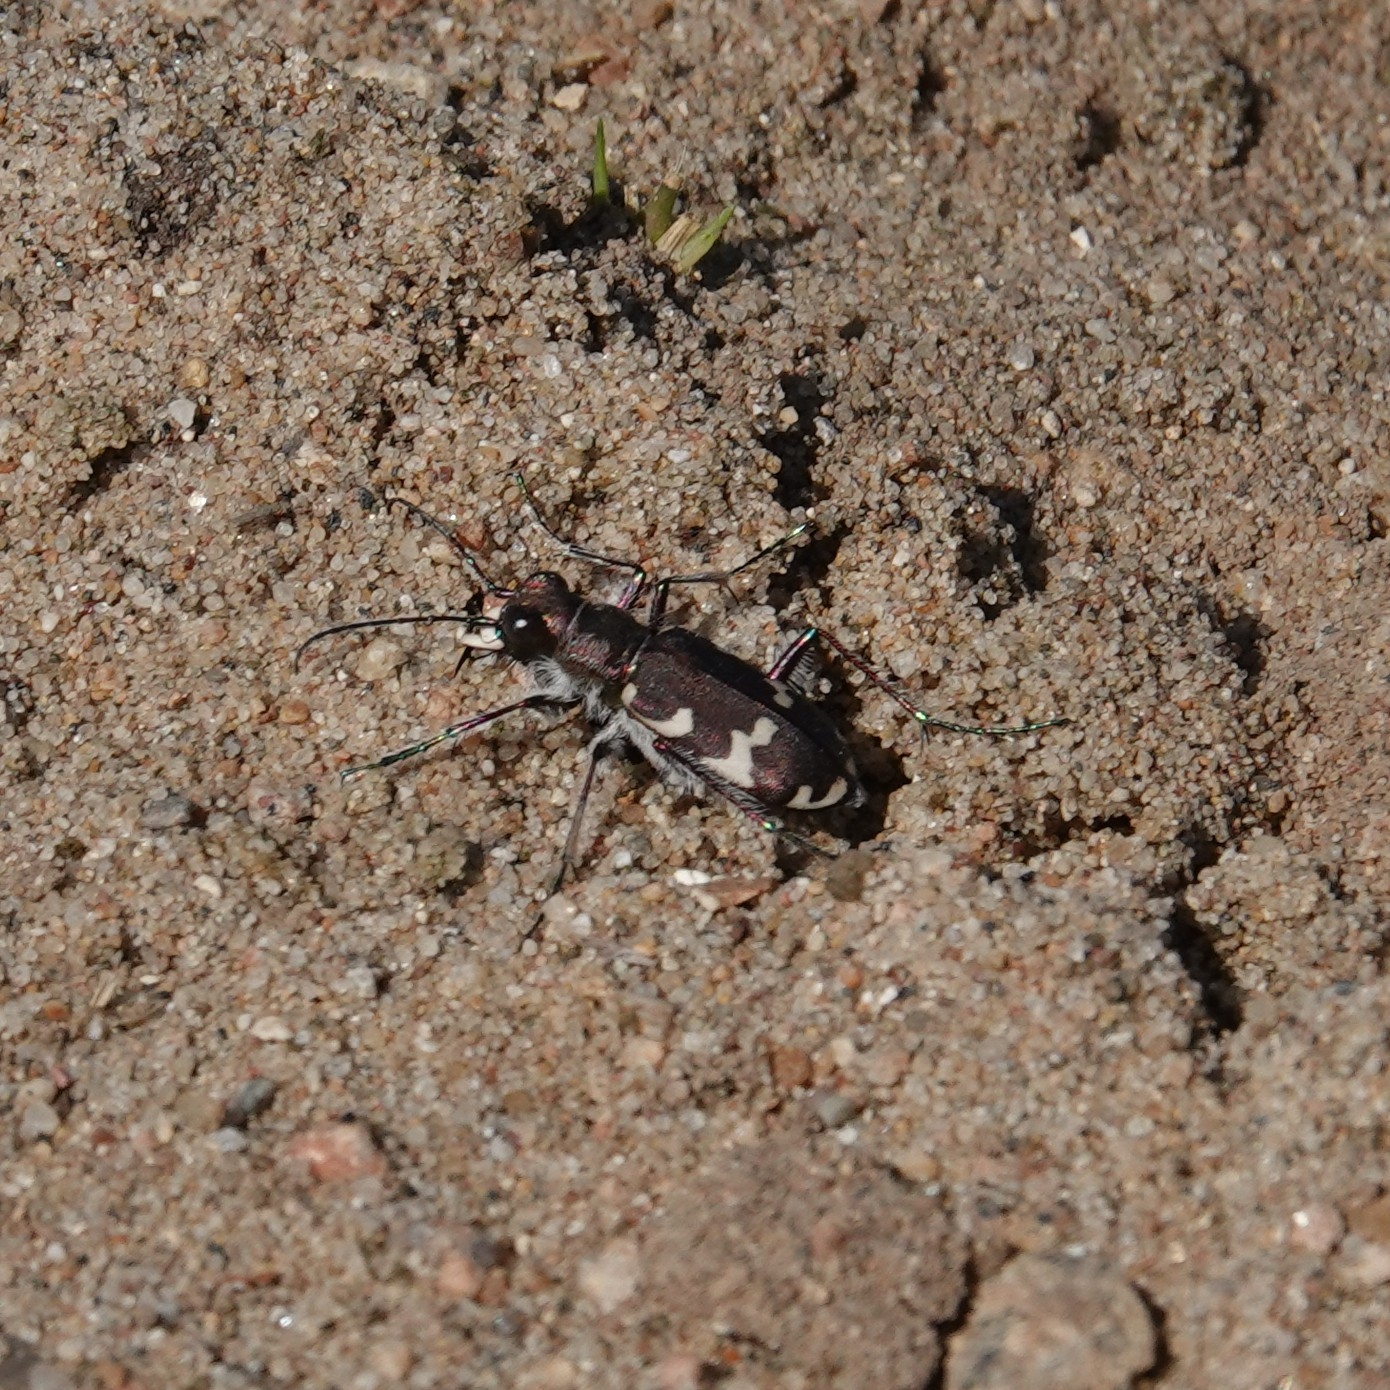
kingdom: Animalia
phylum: Arthropoda
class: Insecta
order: Coleoptera
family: Carabidae
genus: Cicindela
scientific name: Cicindela hybrida
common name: Northern dune tiger beetle
